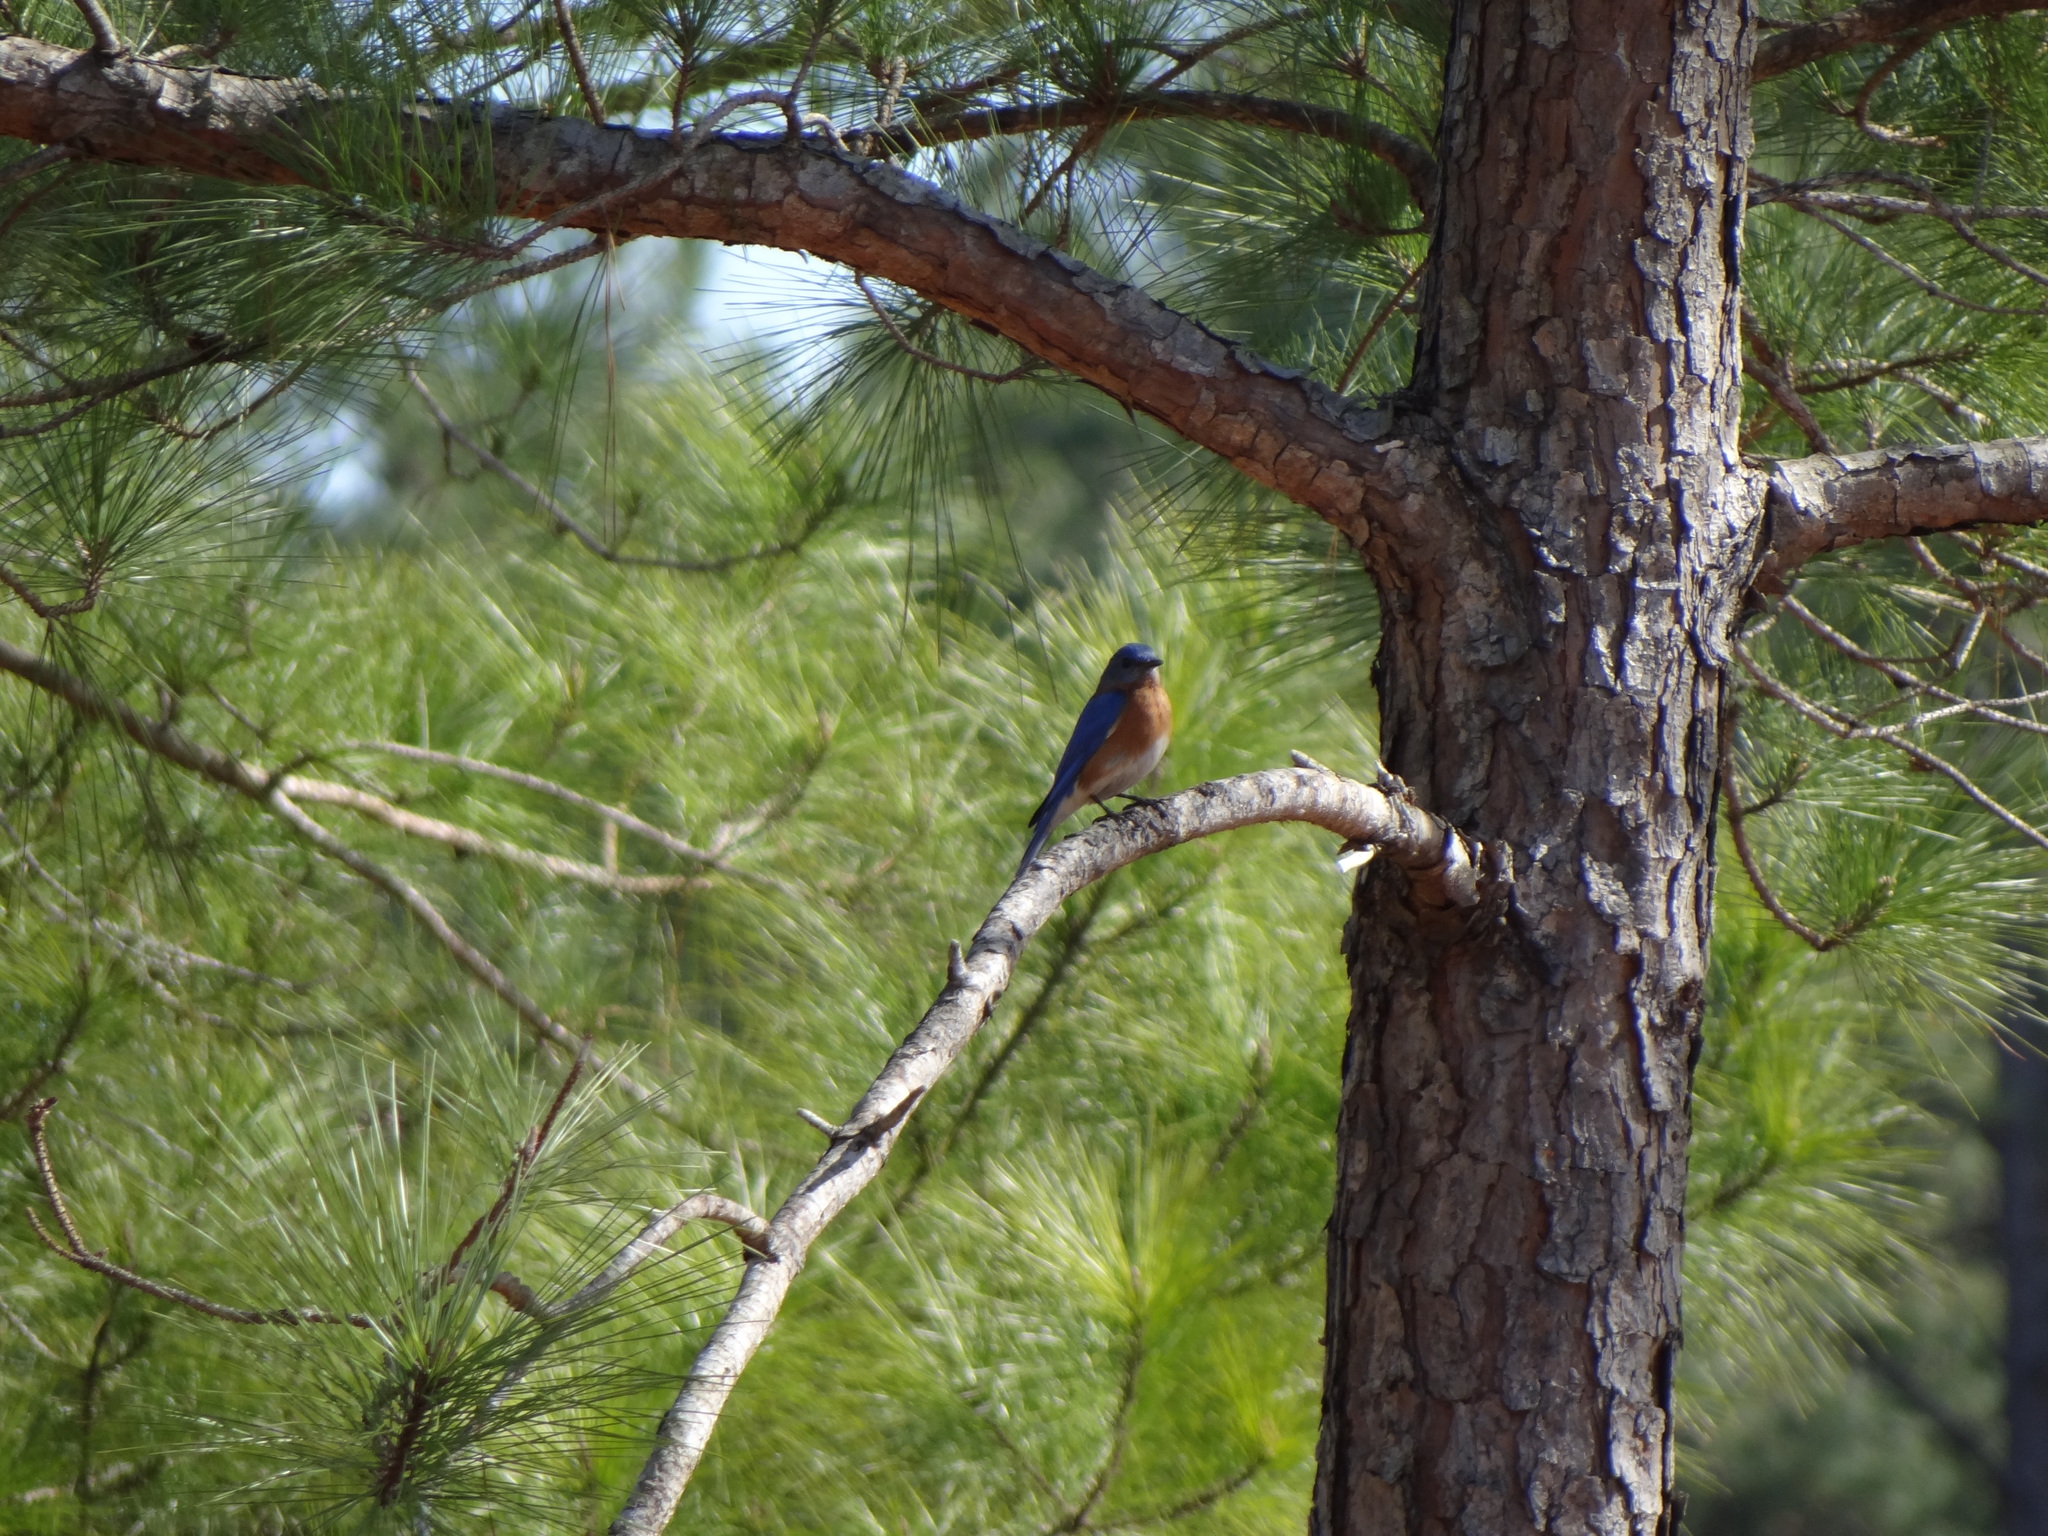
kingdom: Animalia
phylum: Chordata
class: Aves
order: Passeriformes
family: Turdidae
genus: Sialia
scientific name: Sialia sialis
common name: Eastern bluebird
